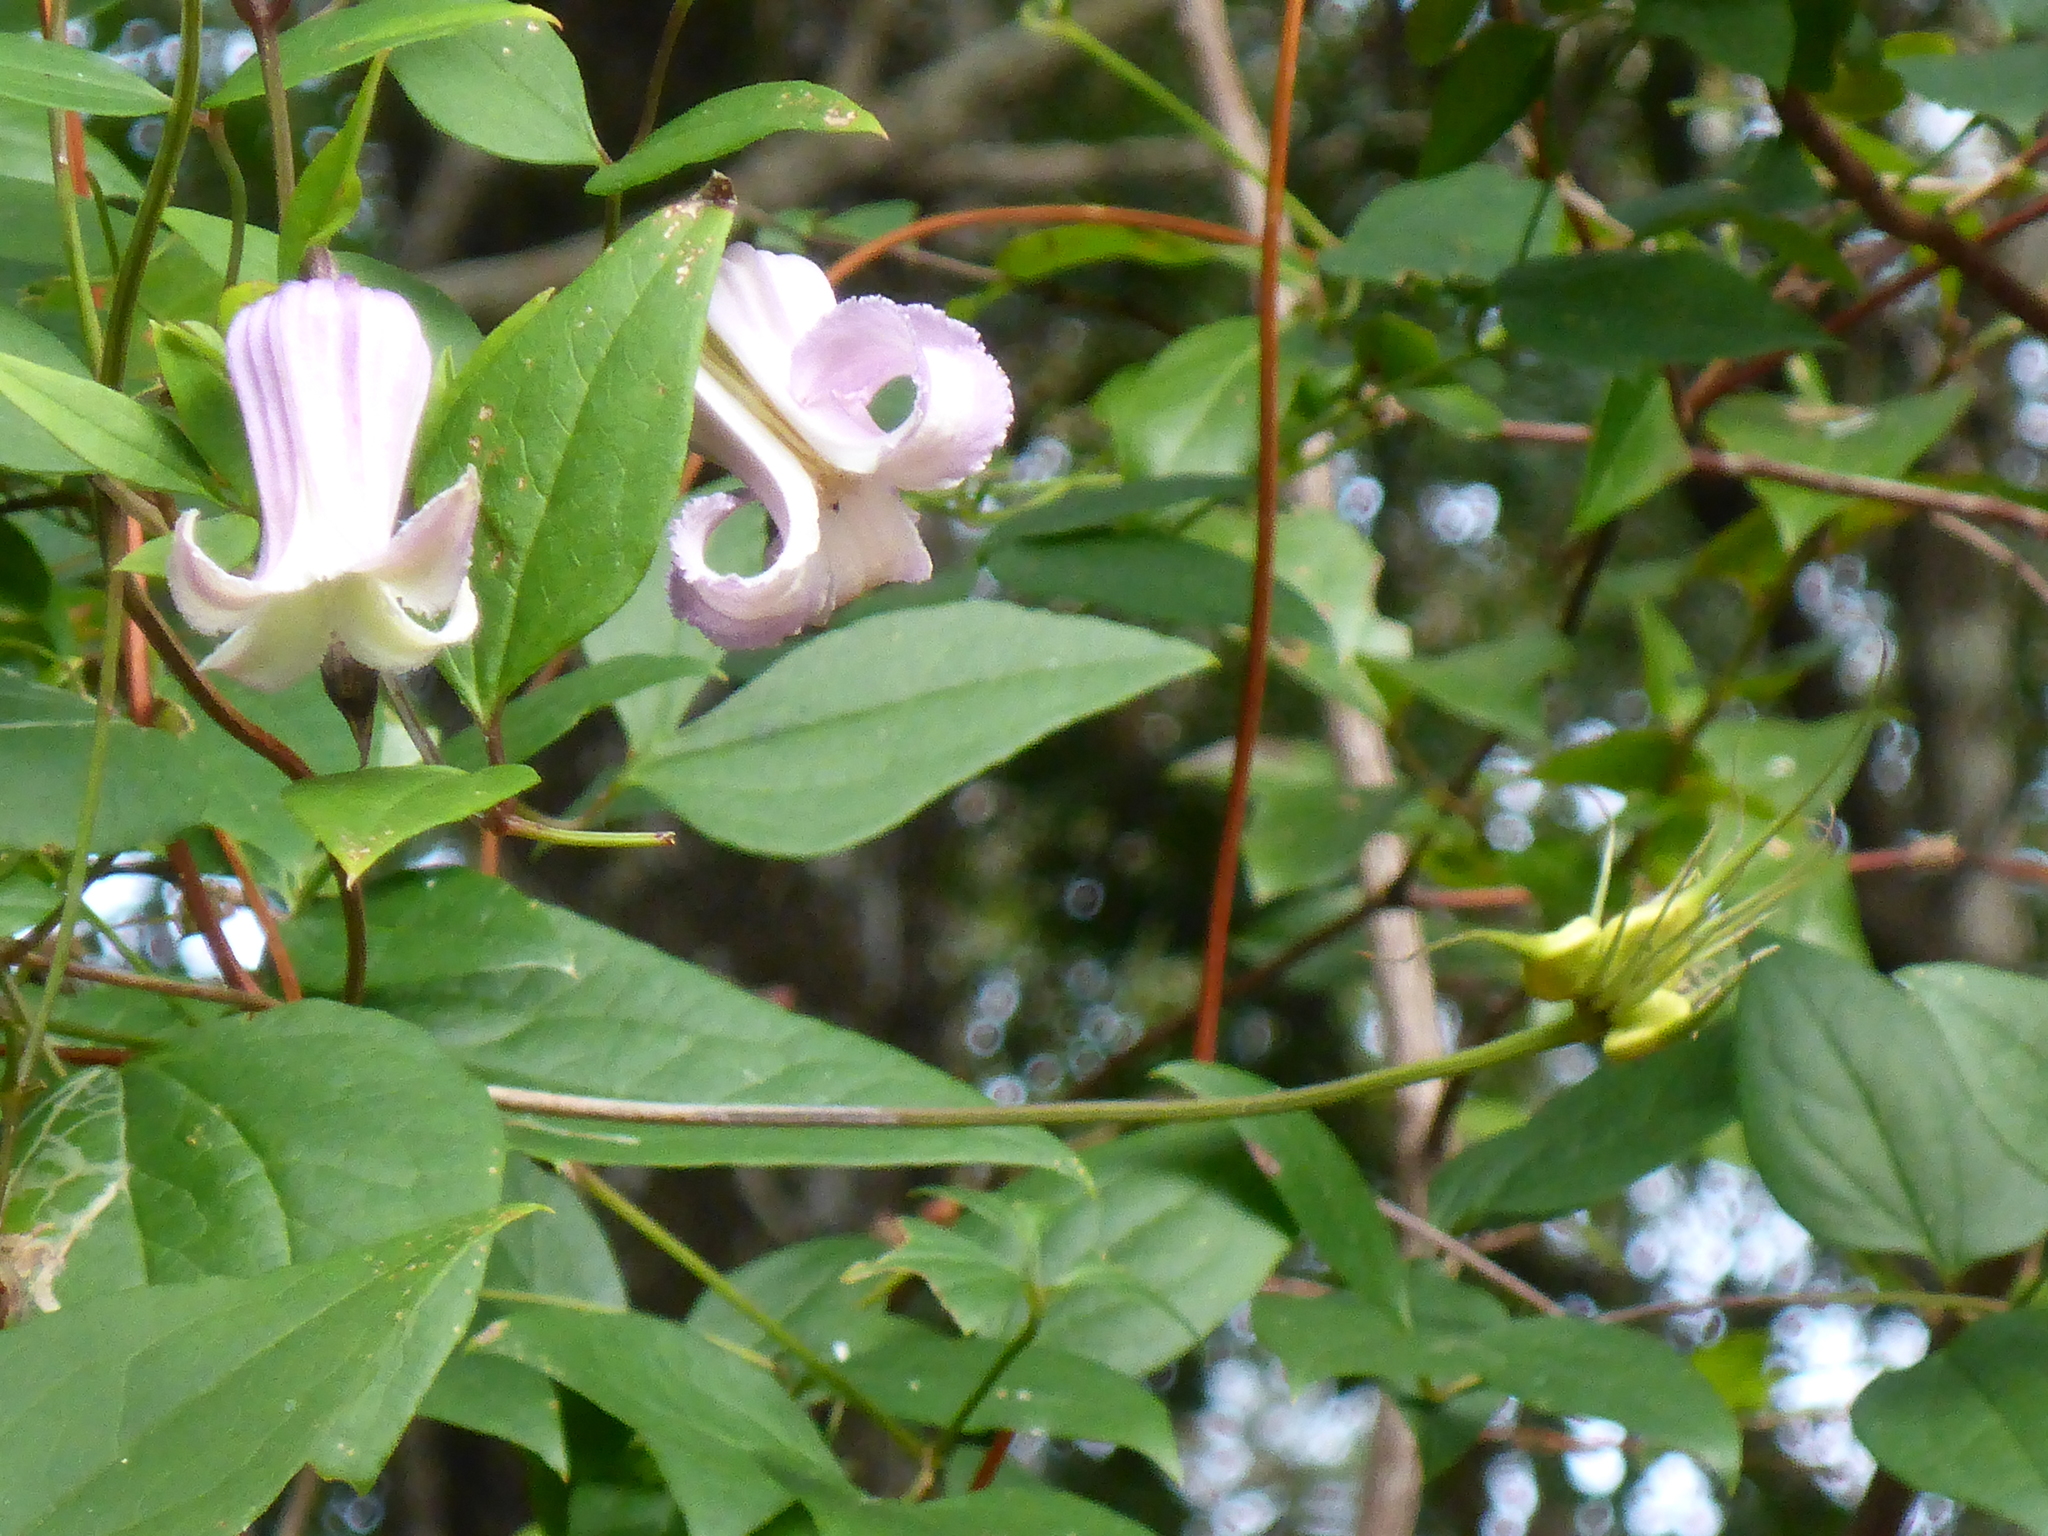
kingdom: Plantae
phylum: Tracheophyta
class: Magnoliopsida
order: Ranunculales
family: Ranunculaceae
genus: Clematis
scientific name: Clematis crispa
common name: Curly clematis
